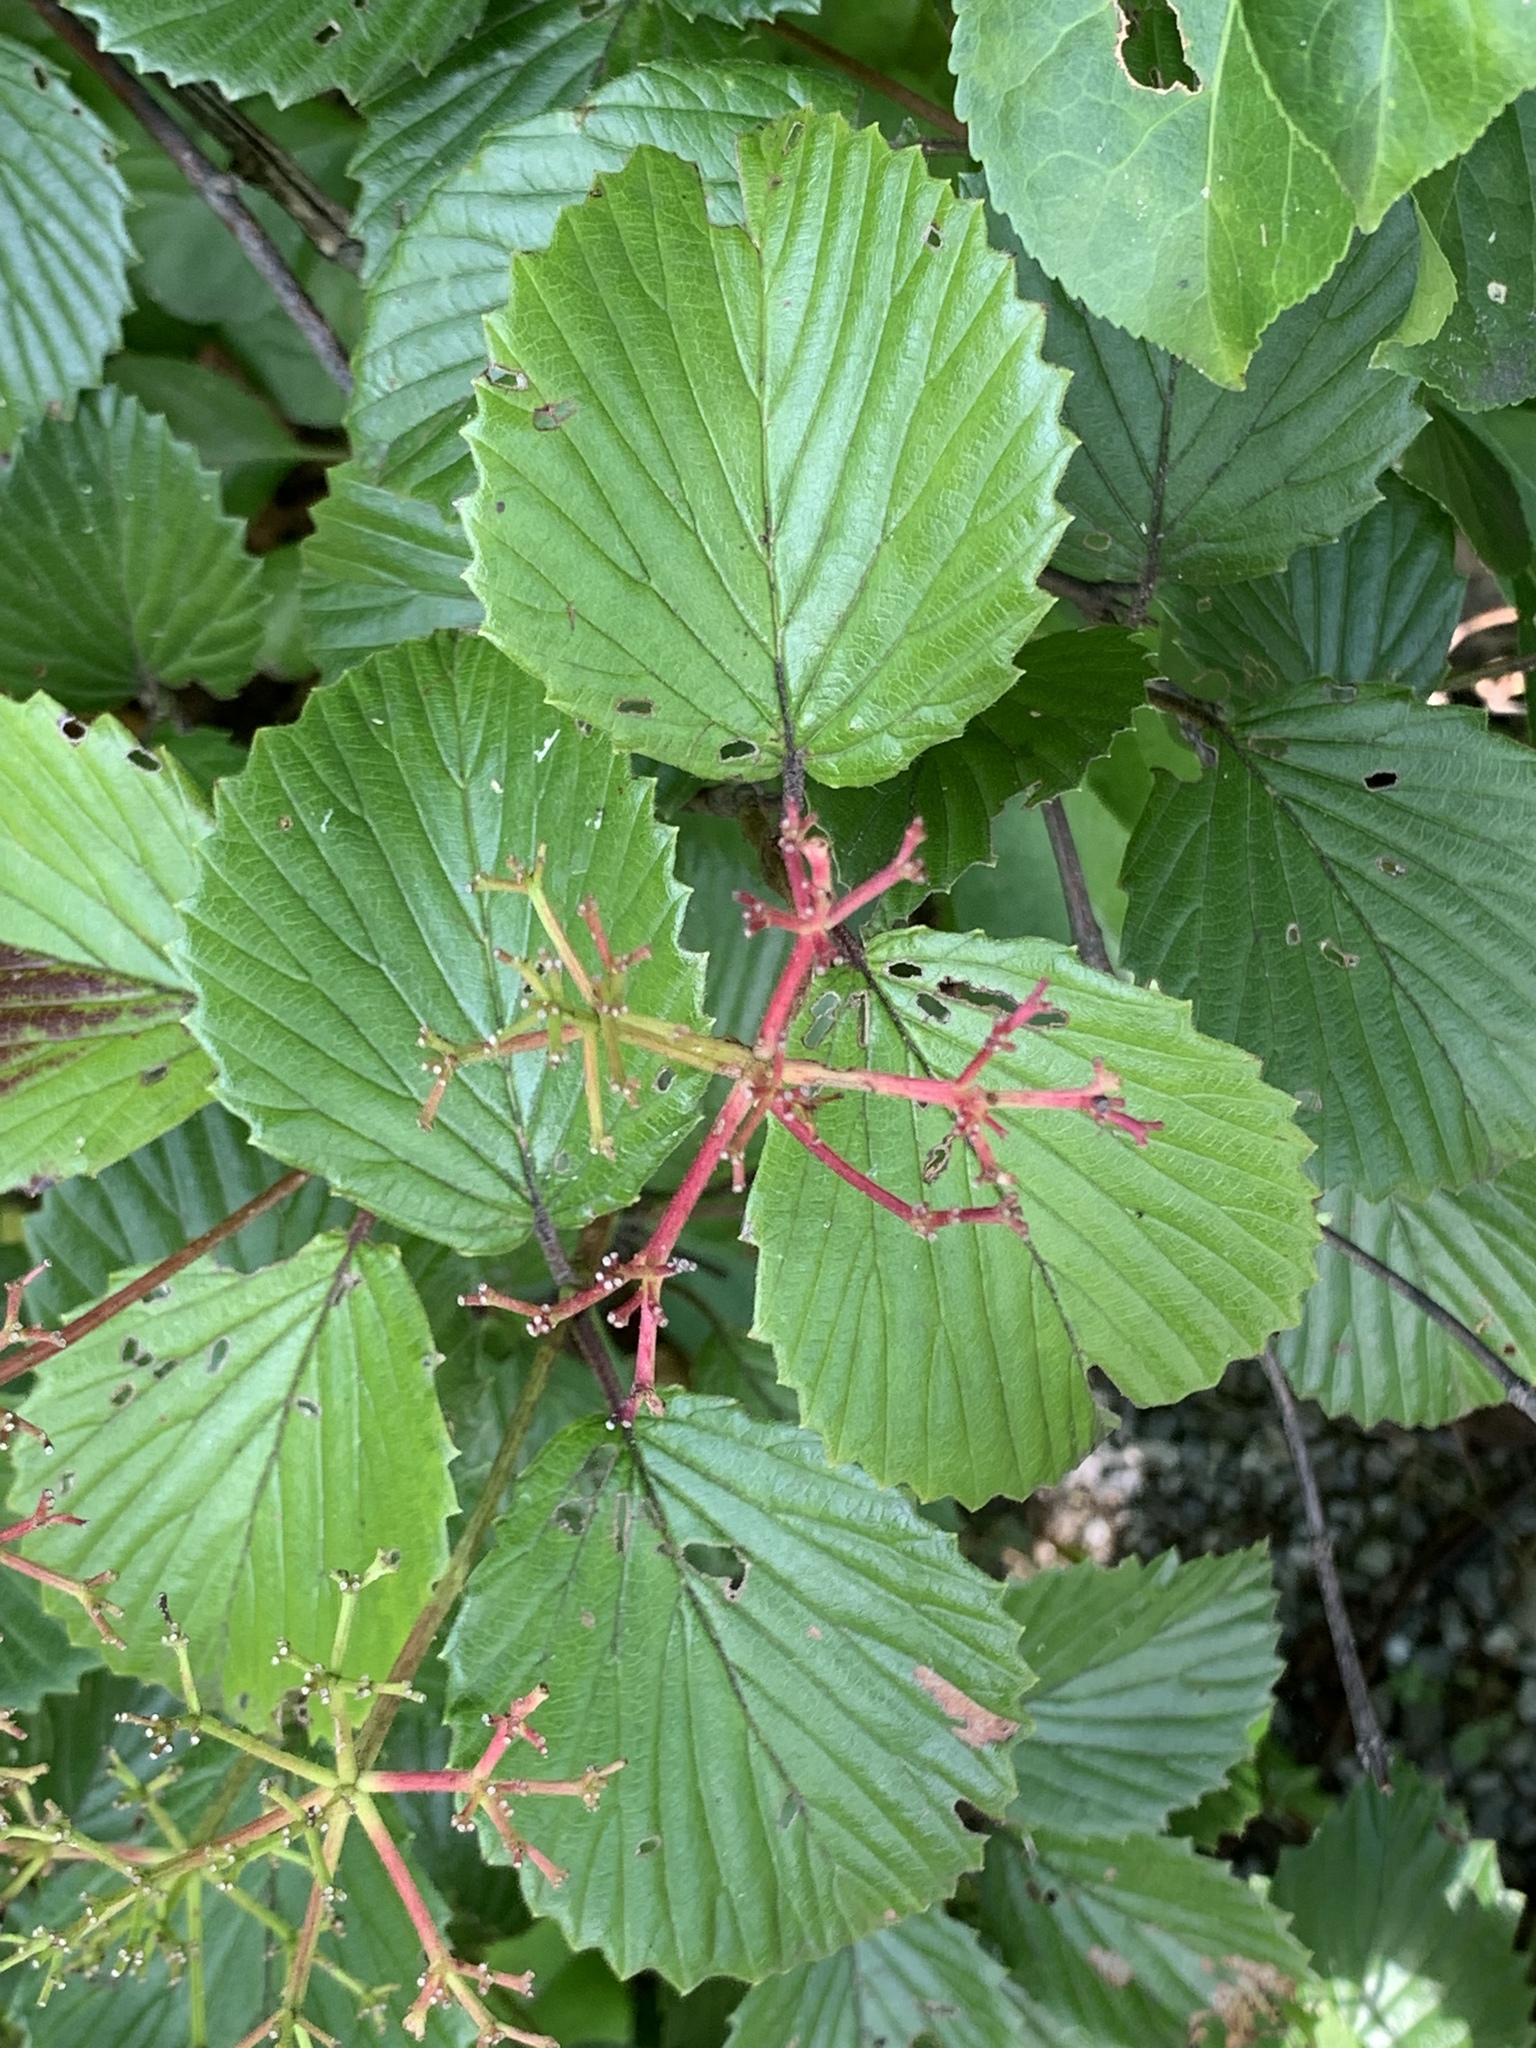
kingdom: Plantae
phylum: Tracheophyta
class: Magnoliopsida
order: Dipsacales
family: Viburnaceae
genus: Viburnum
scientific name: Viburnum dentatum
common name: Arrow-wood
